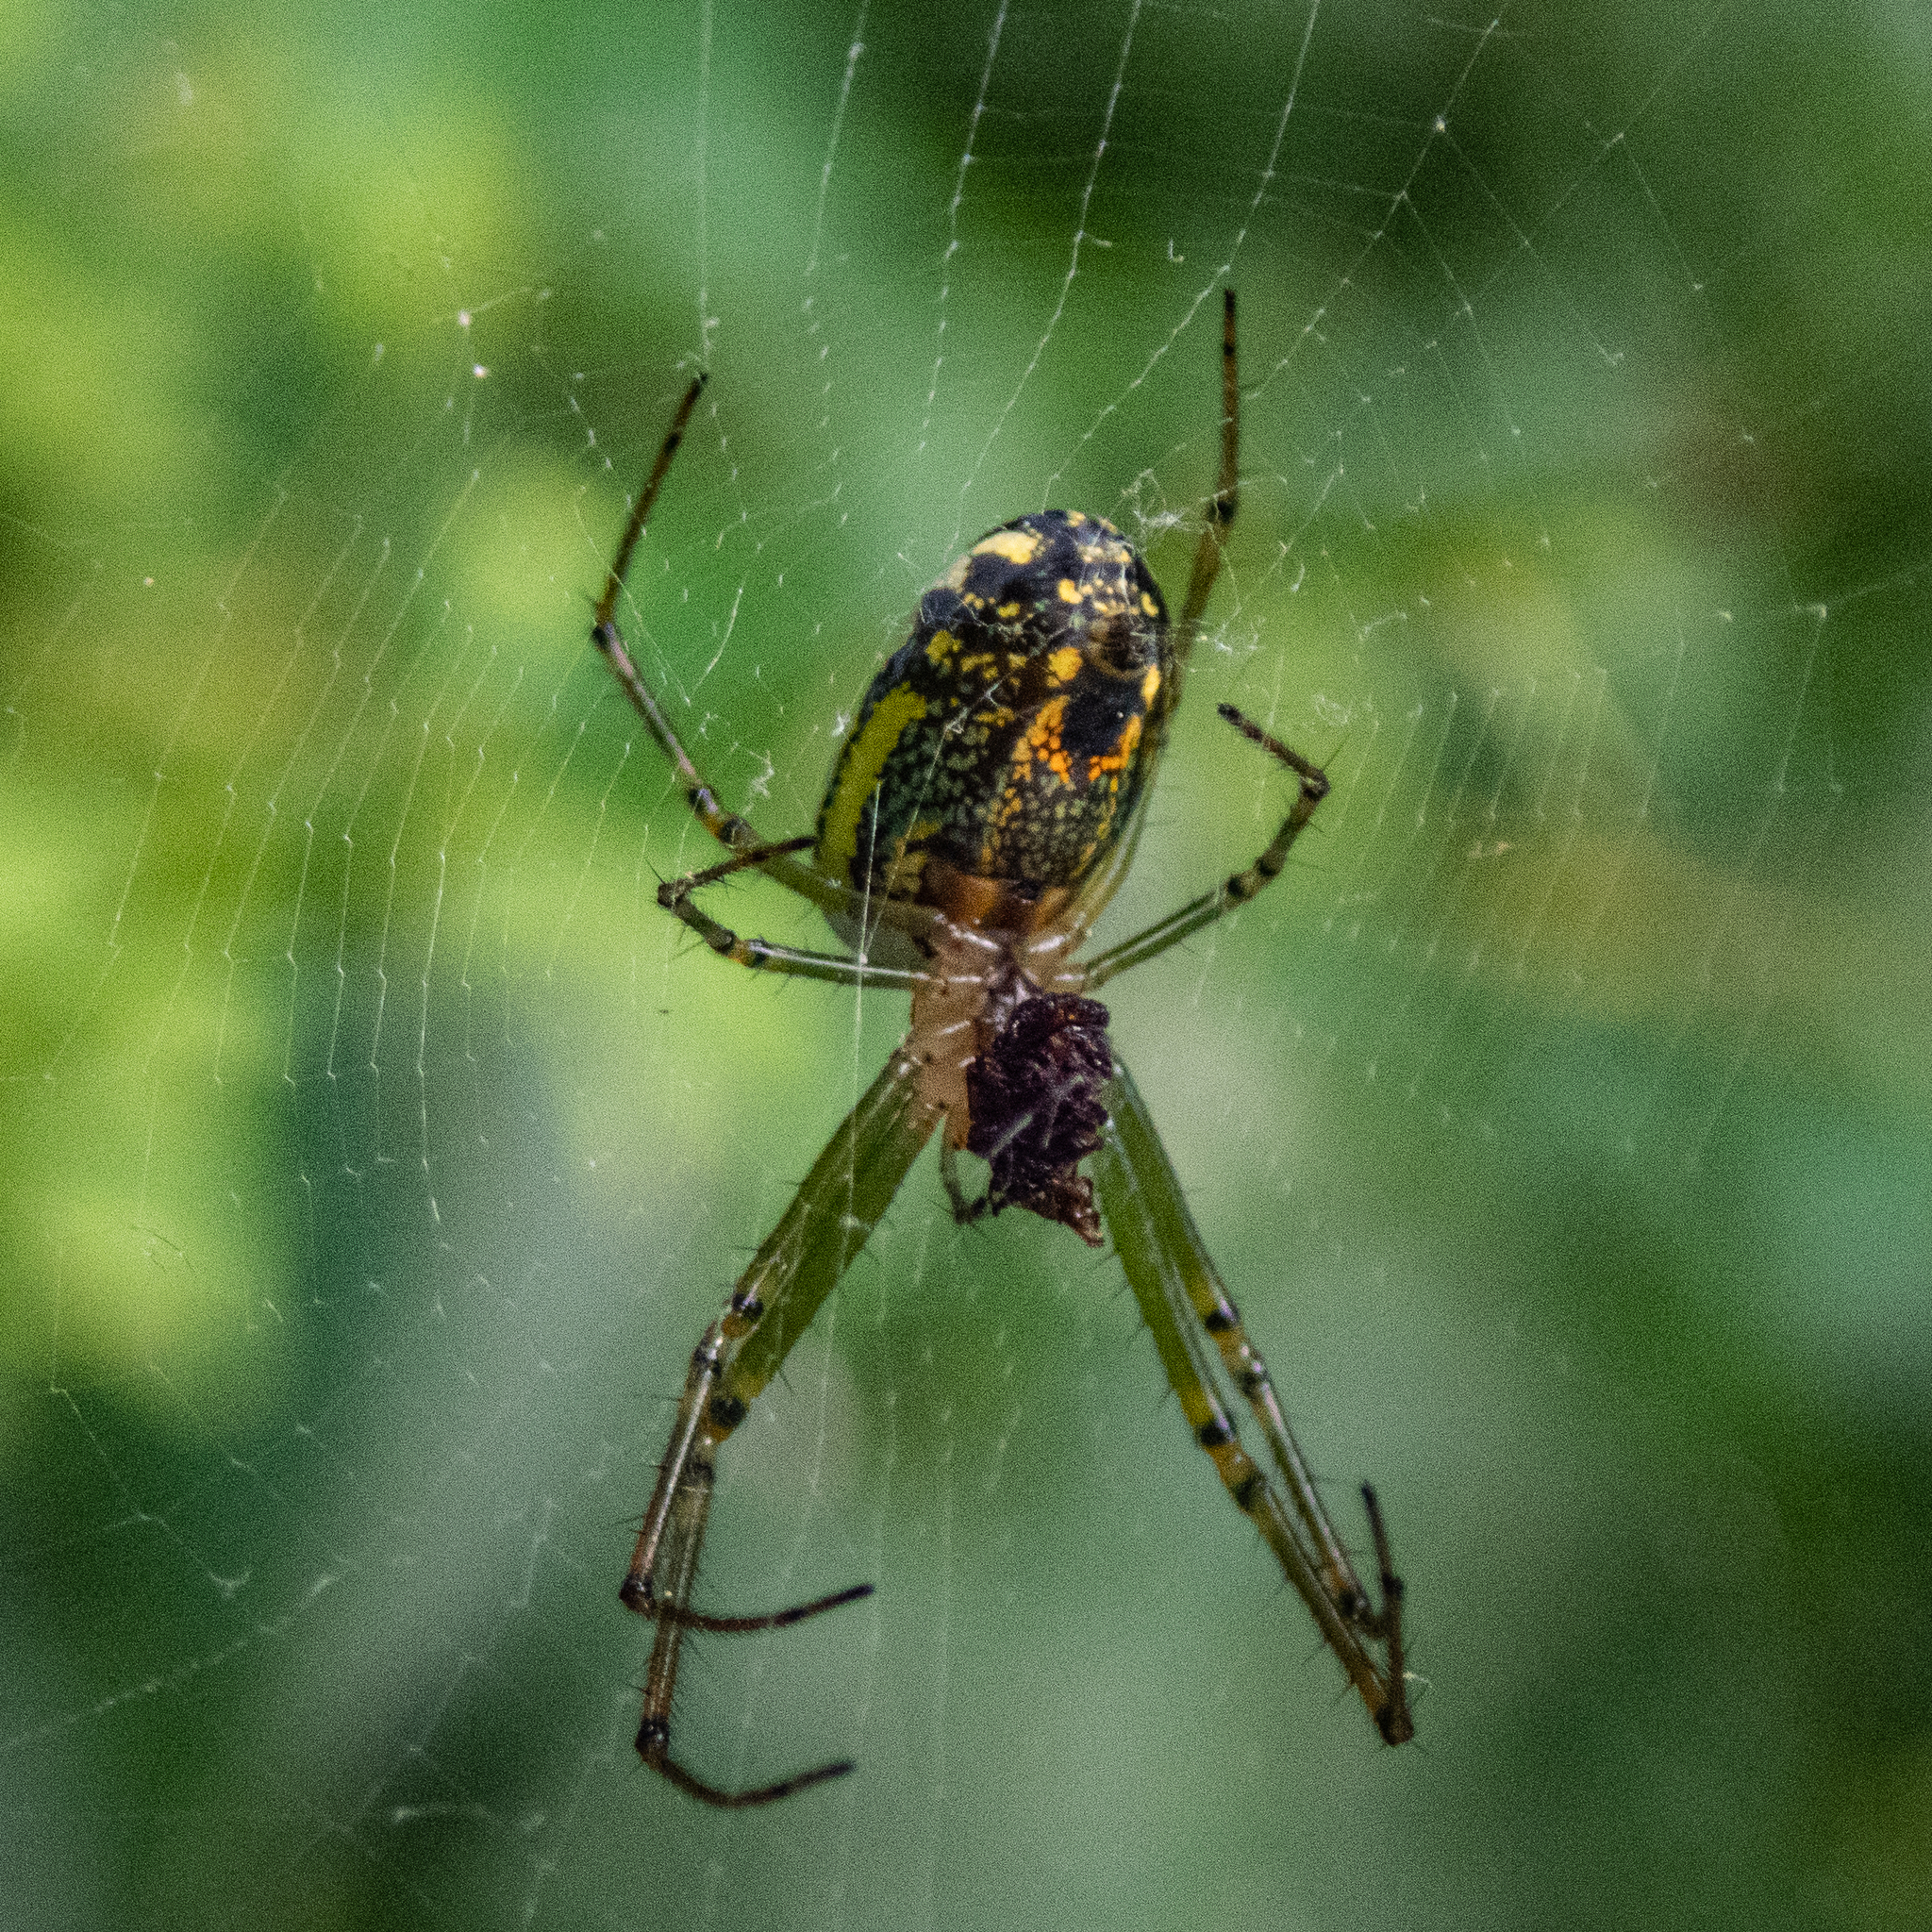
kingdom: Animalia
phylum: Arthropoda
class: Arachnida
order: Araneae
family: Tetragnathidae
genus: Leucauge
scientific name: Leucauge venusta
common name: Longjawed orb weavers
